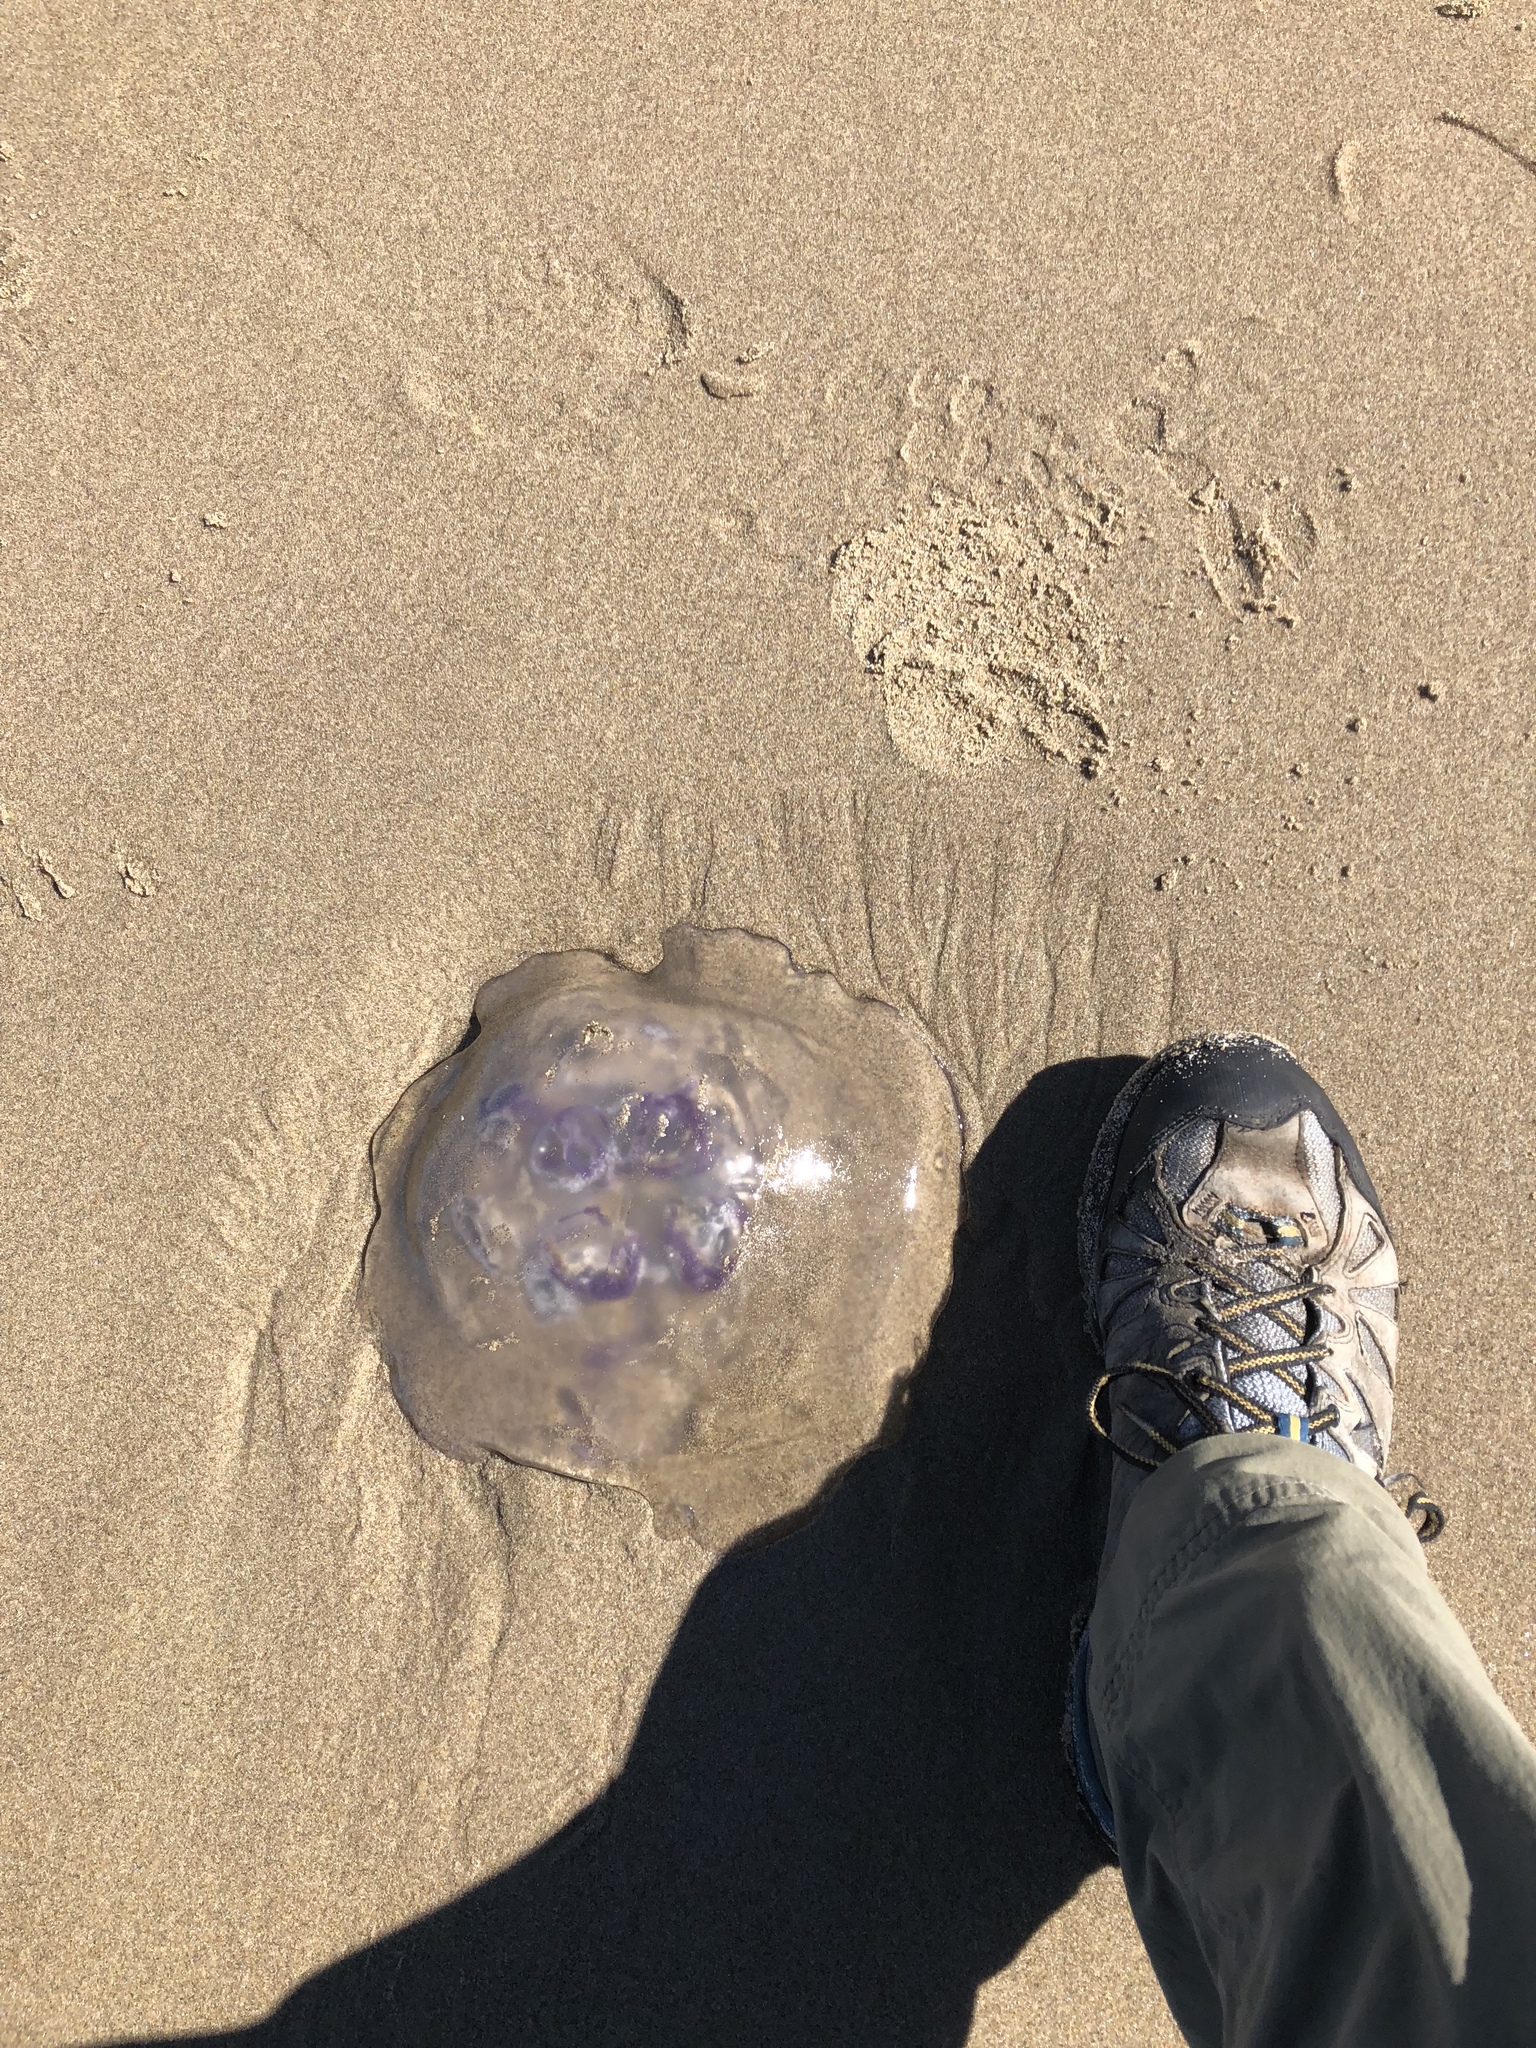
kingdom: Animalia
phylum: Cnidaria
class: Scyphozoa
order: Semaeostomeae
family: Ulmaridae
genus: Aurelia
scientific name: Aurelia labiata
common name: Pacific moon jelly
